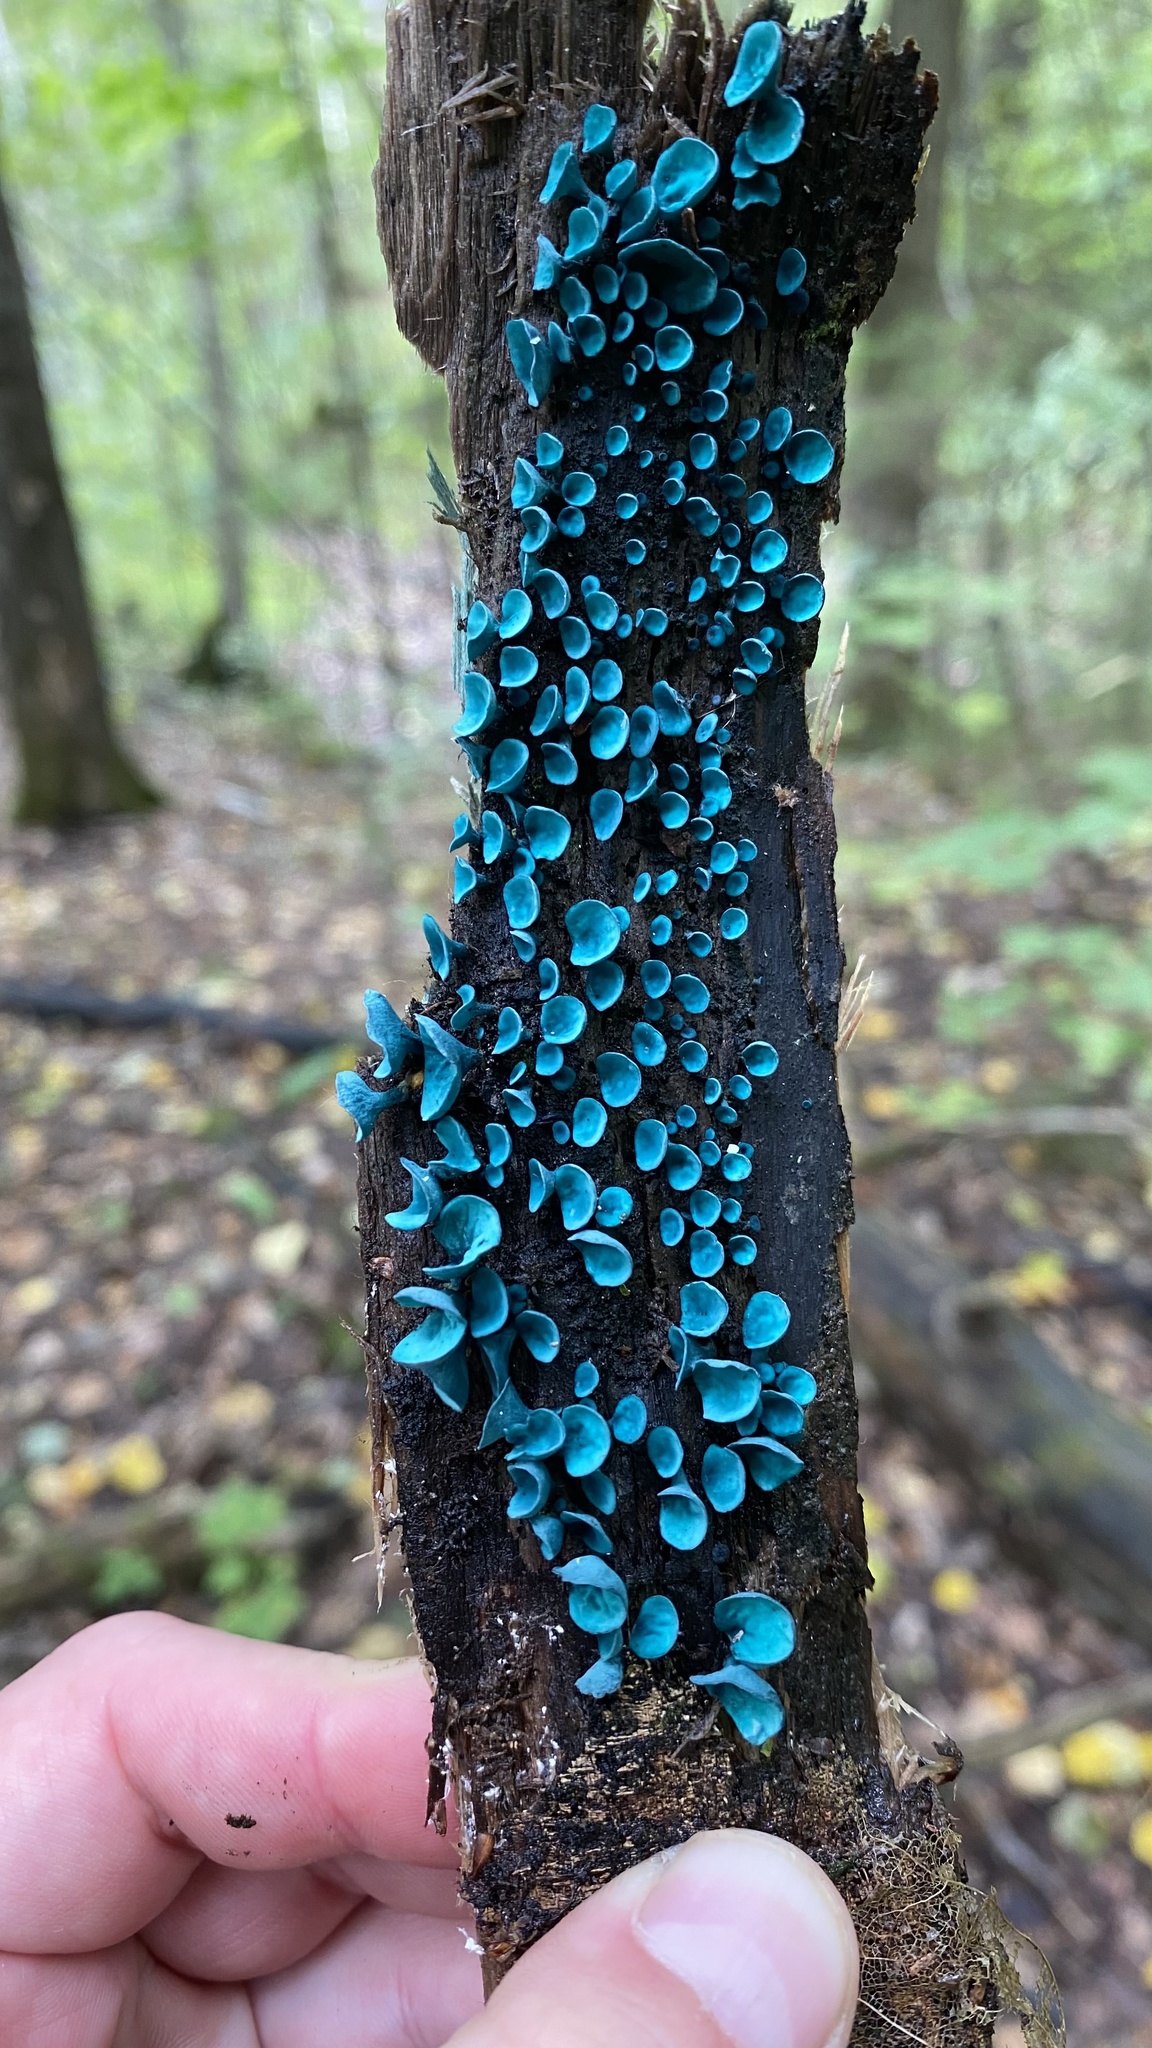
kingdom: Fungi
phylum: Ascomycota
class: Leotiomycetes
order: Helotiales
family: Chlorociboriaceae
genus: Chlorociboria
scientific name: Chlorociboria aeruginascens
